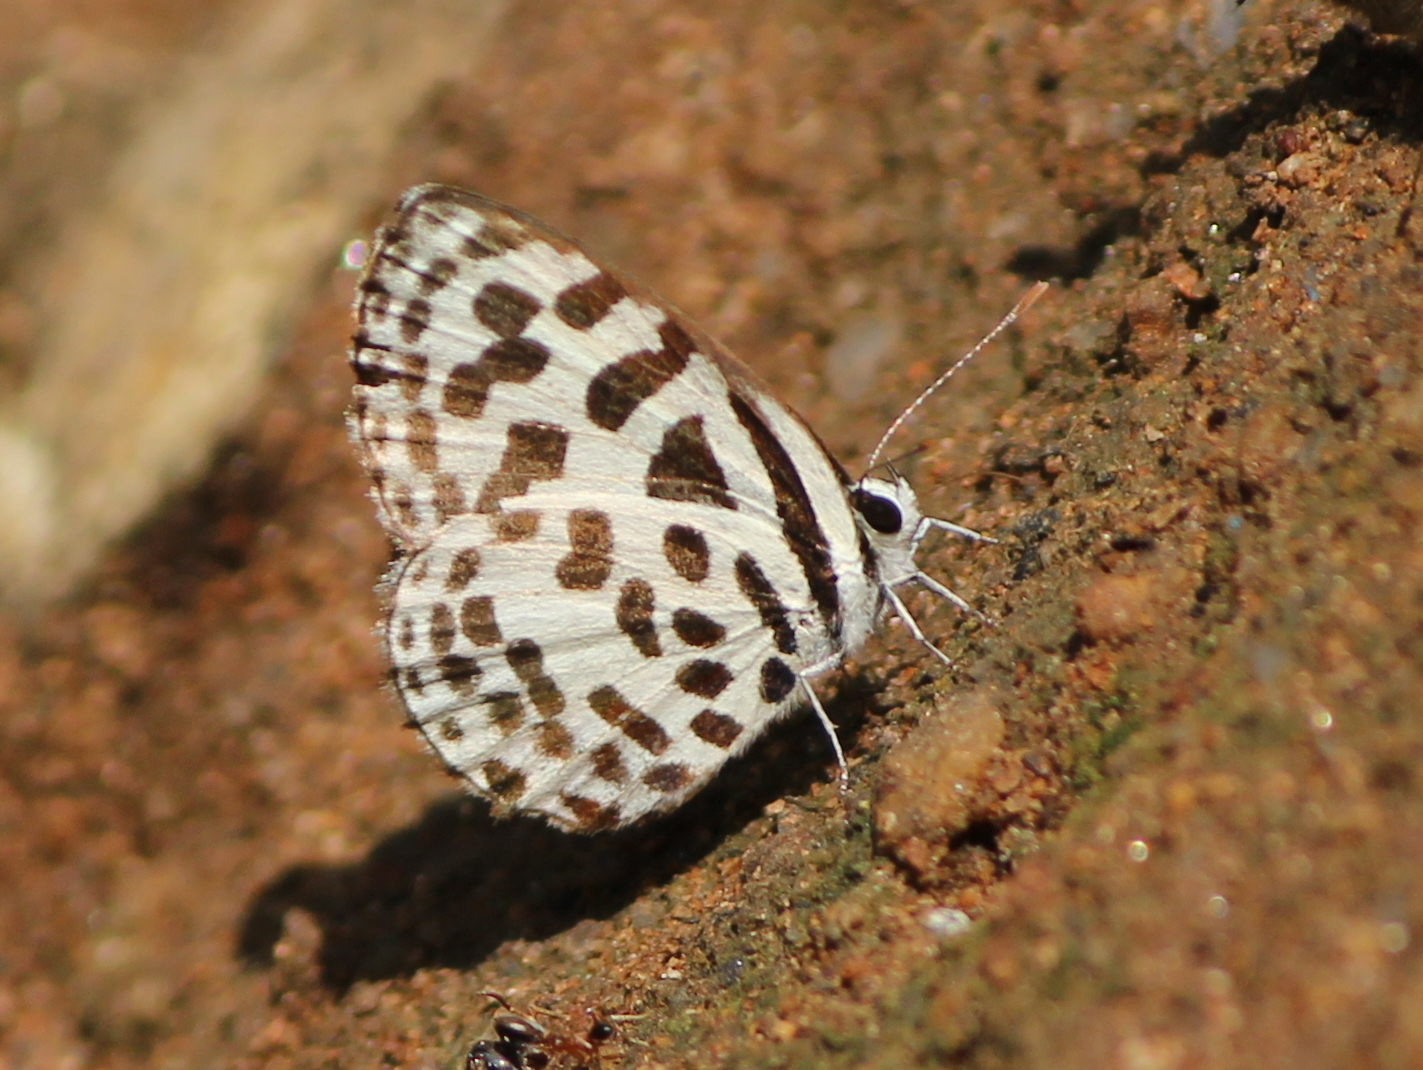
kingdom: Animalia
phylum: Arthropoda
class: Insecta
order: Lepidoptera
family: Lycaenidae
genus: Castalius
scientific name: Castalius rosimon
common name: Common pierrot
